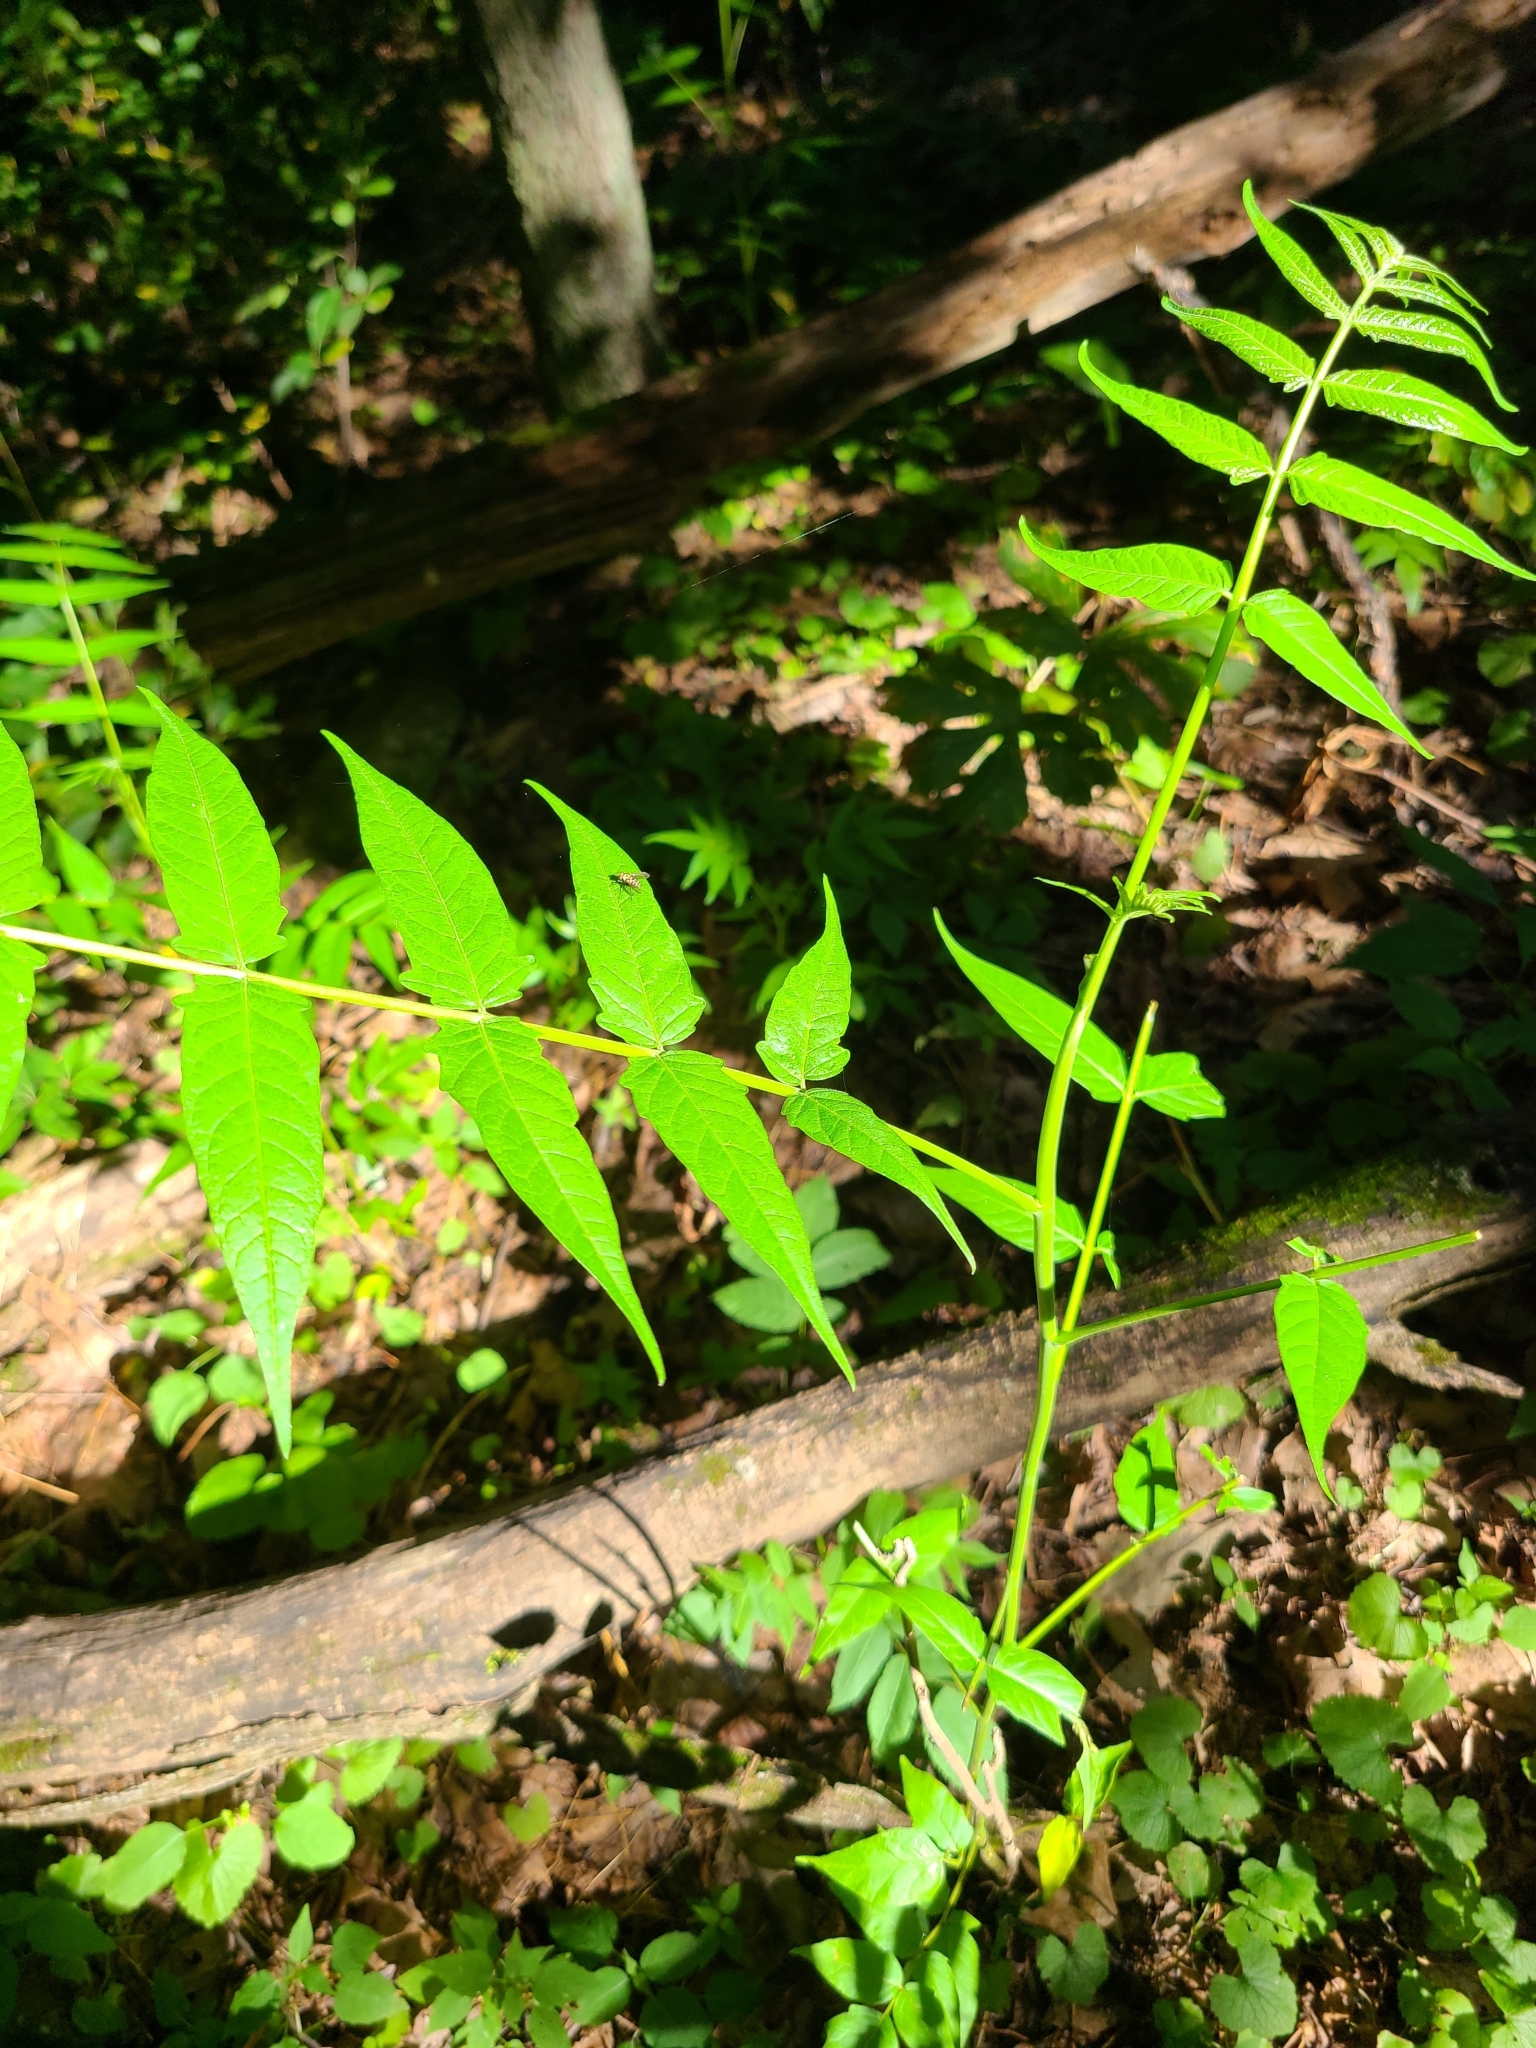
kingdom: Plantae
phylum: Tracheophyta
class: Magnoliopsida
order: Sapindales
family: Simaroubaceae
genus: Ailanthus
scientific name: Ailanthus altissima
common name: Tree-of-heaven
